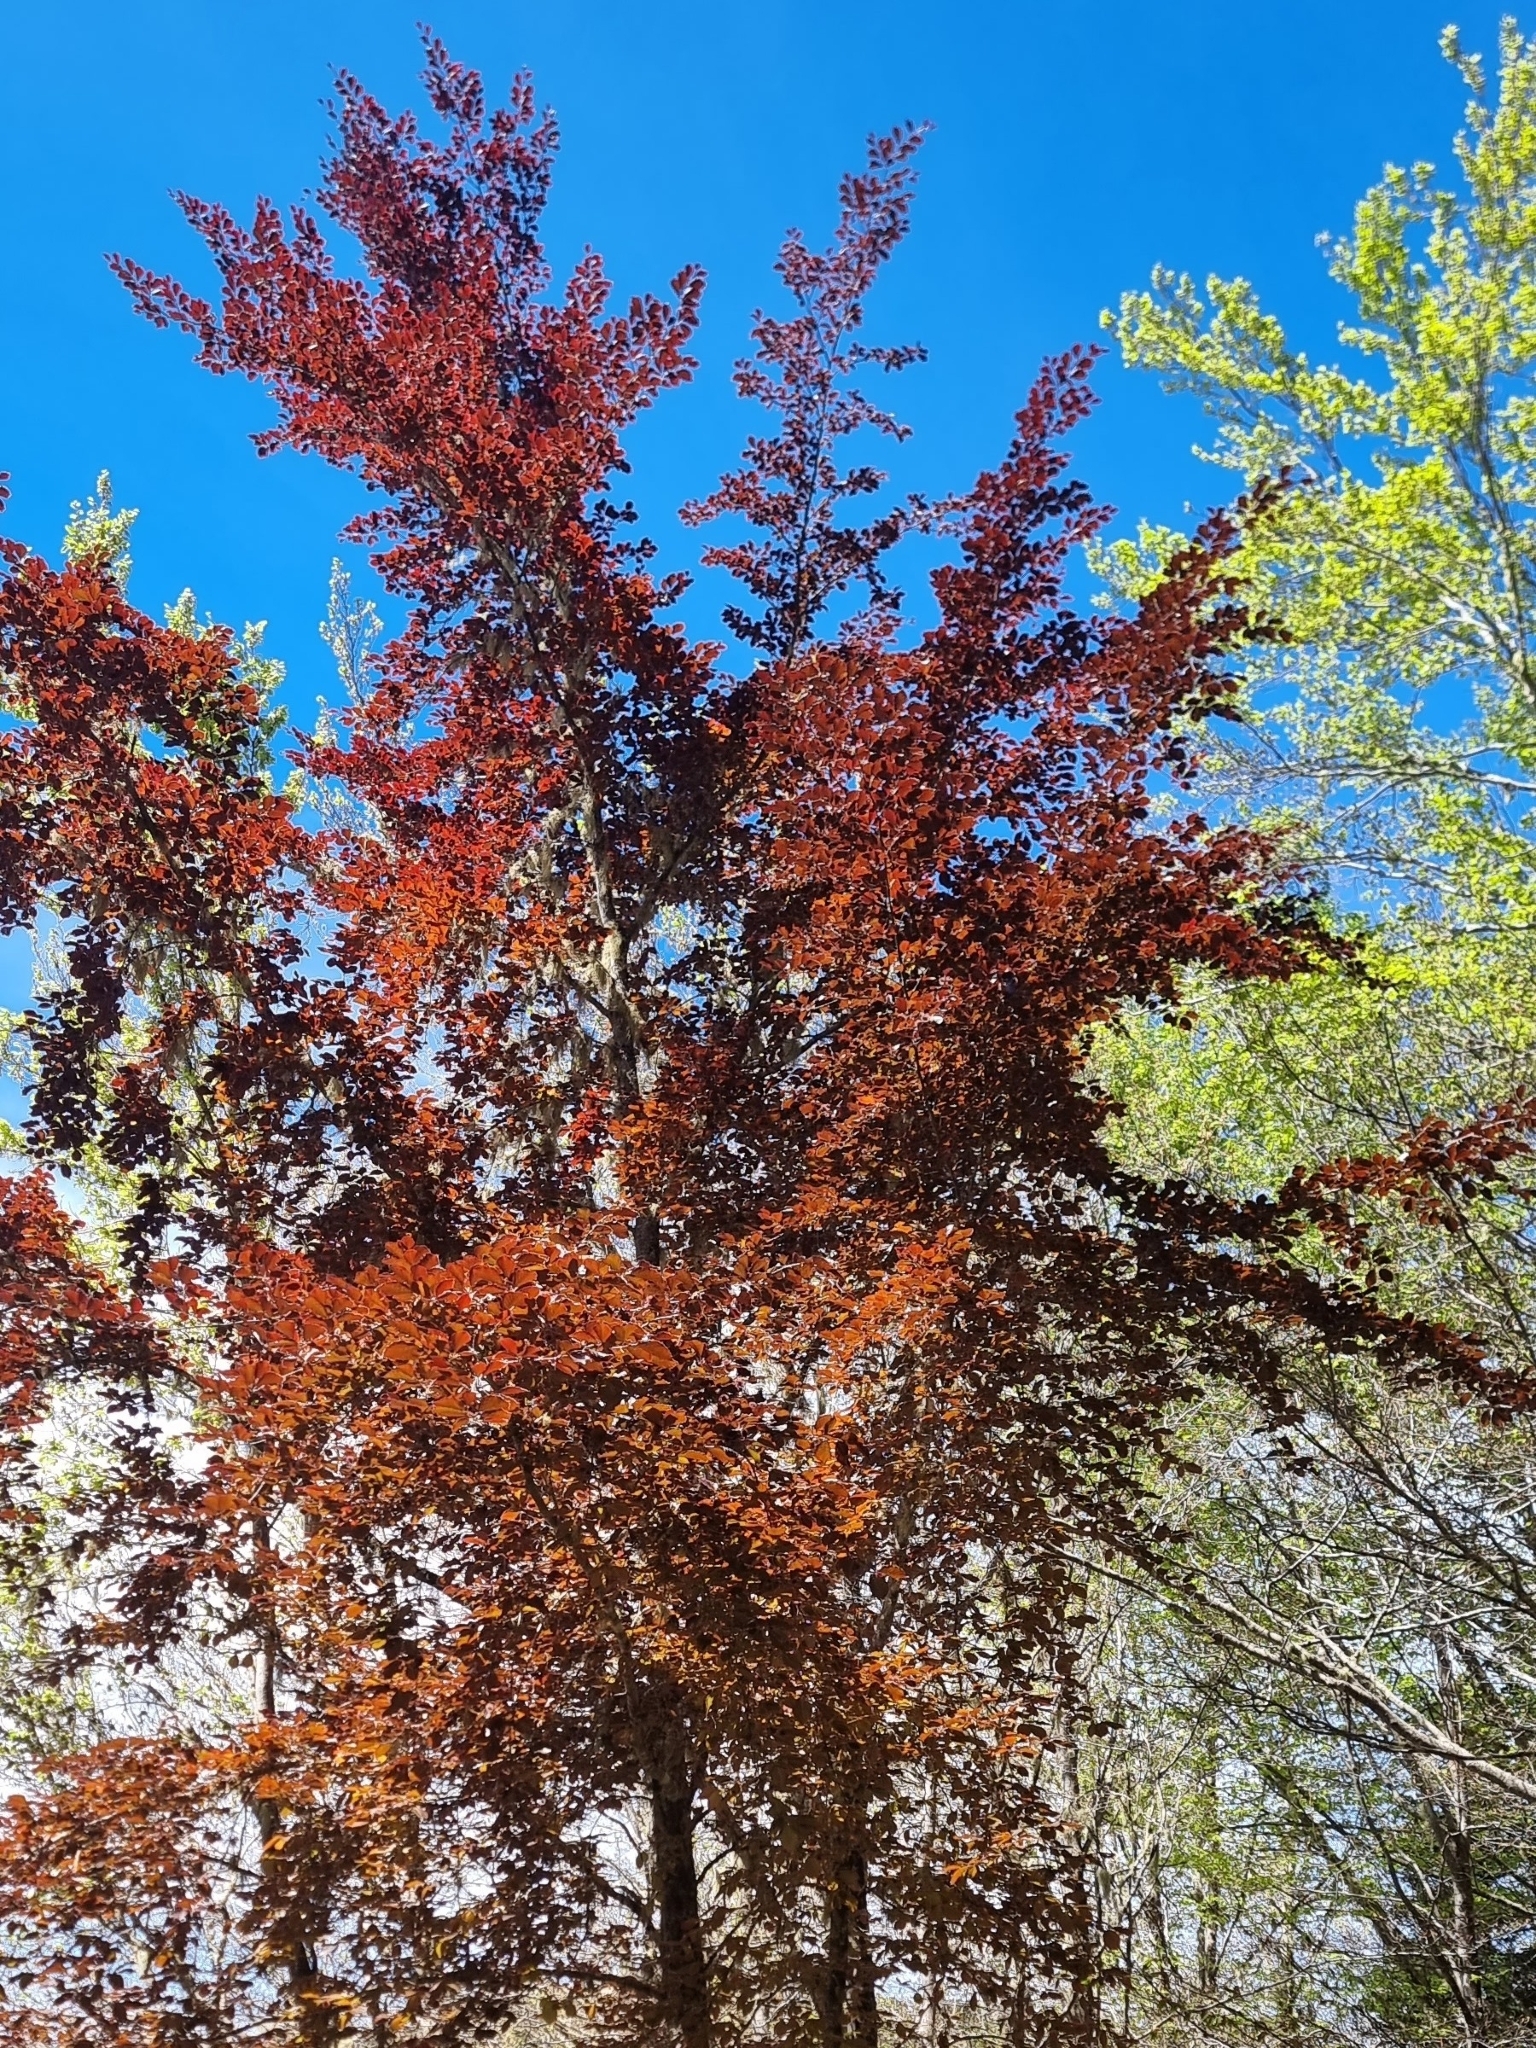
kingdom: Plantae
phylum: Tracheophyta
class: Magnoliopsida
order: Fagales
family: Fagaceae
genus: Fagus
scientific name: Fagus sylvatica
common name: Beech
